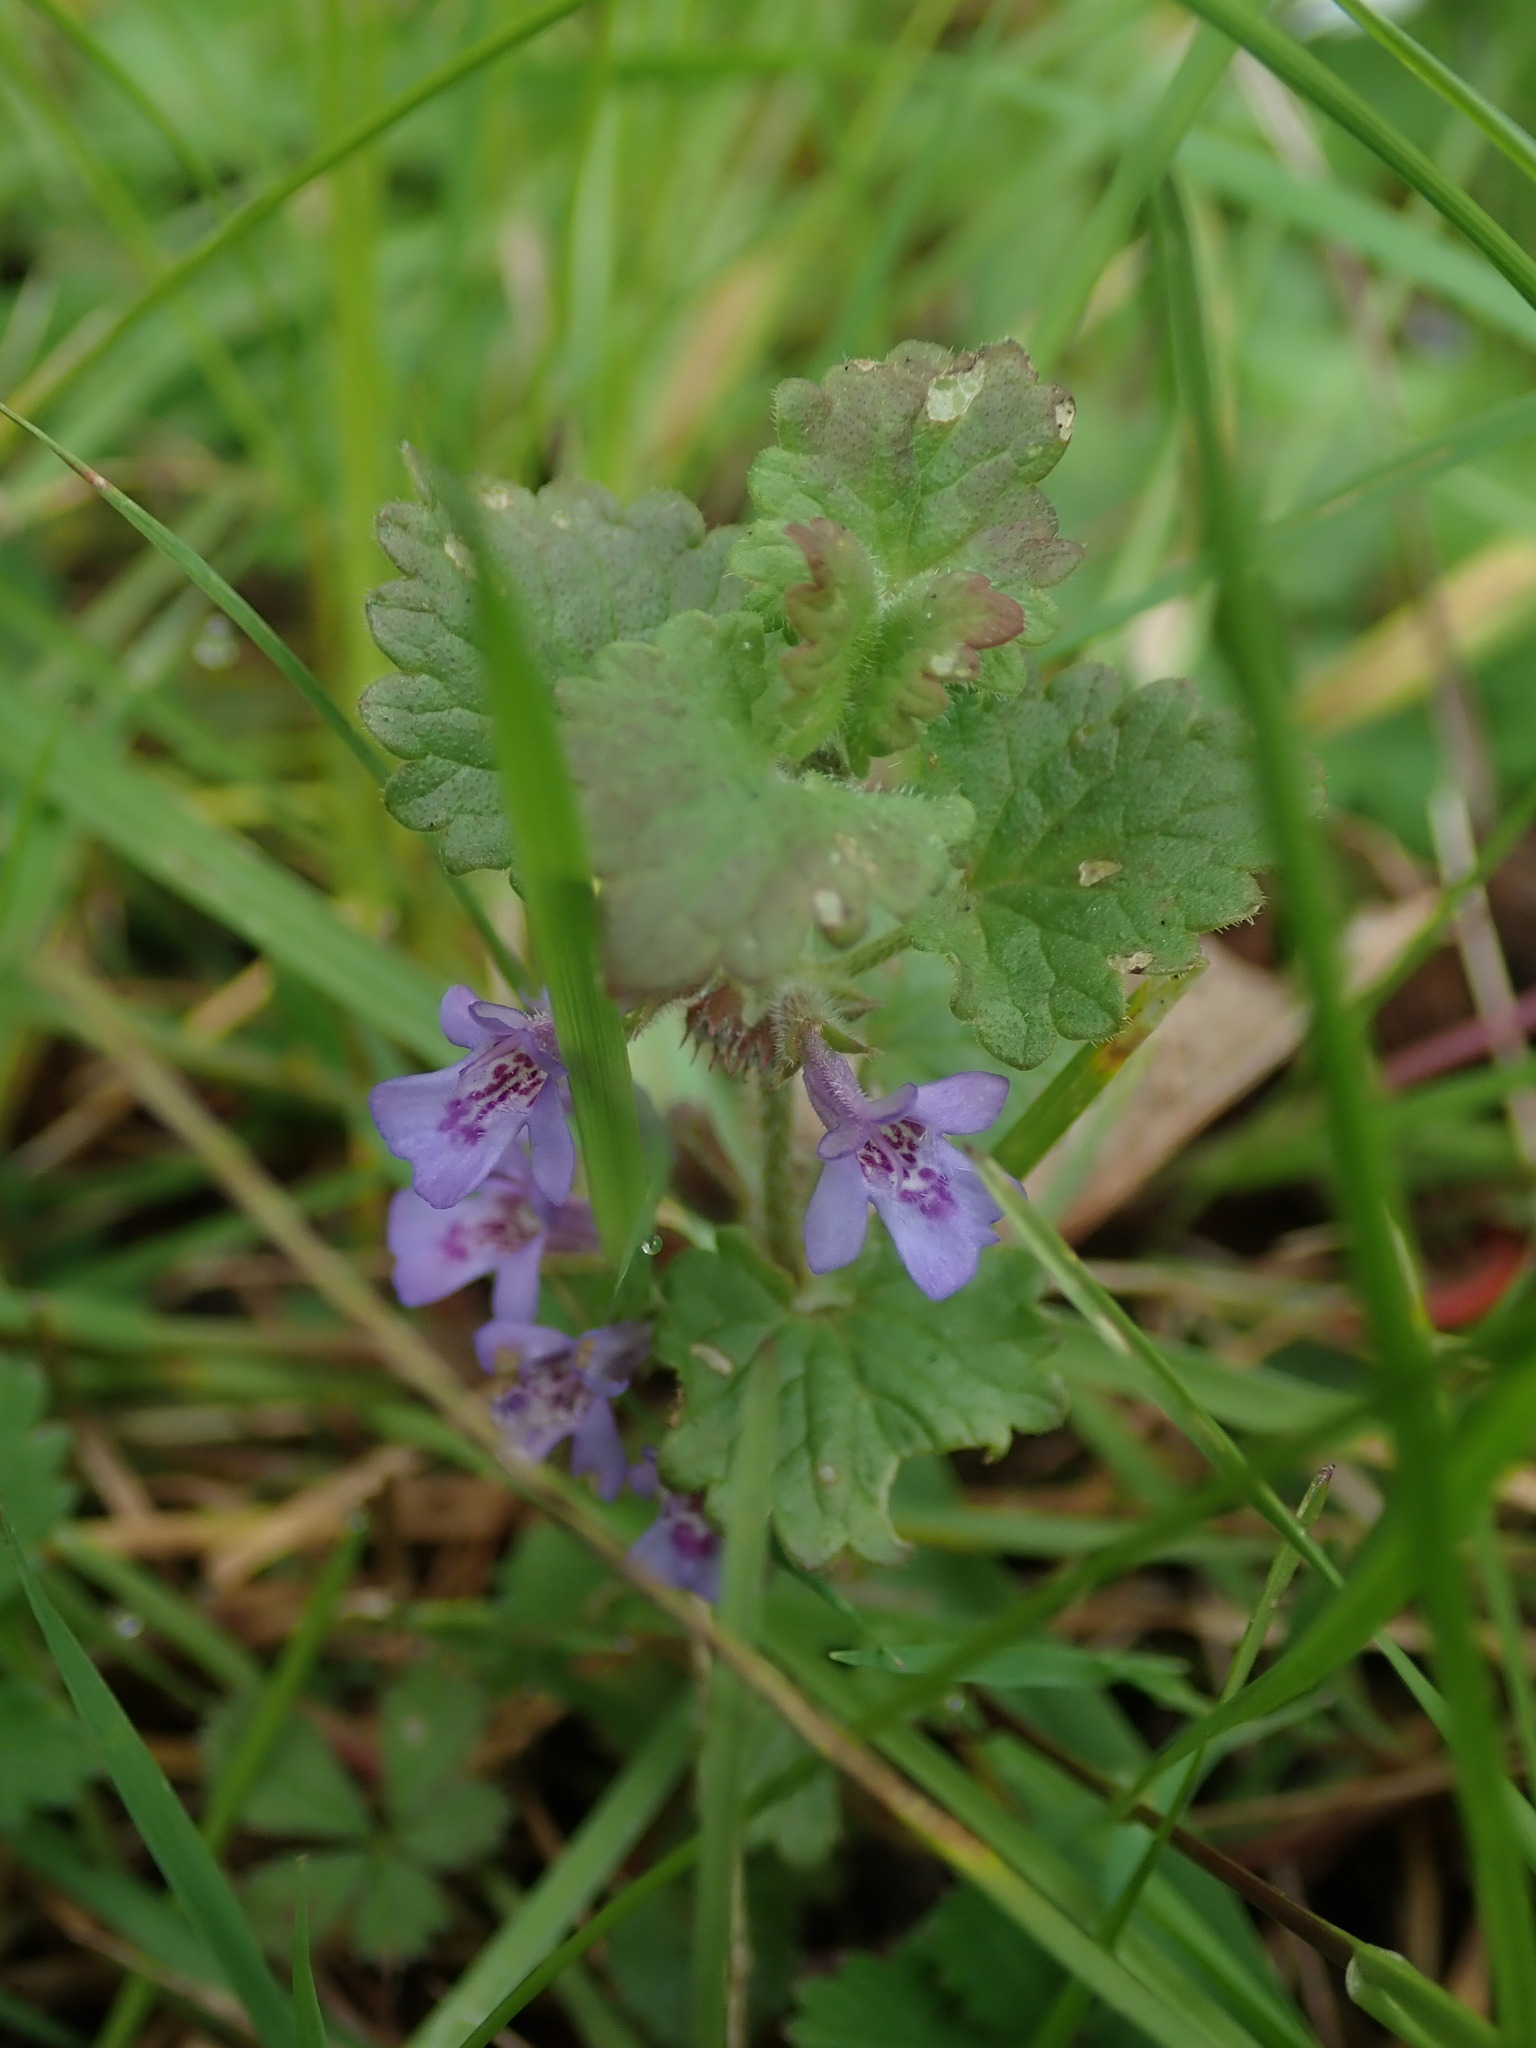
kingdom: Plantae
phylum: Tracheophyta
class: Magnoliopsida
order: Lamiales
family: Lamiaceae
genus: Glechoma
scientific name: Glechoma hederacea
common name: Ground ivy
